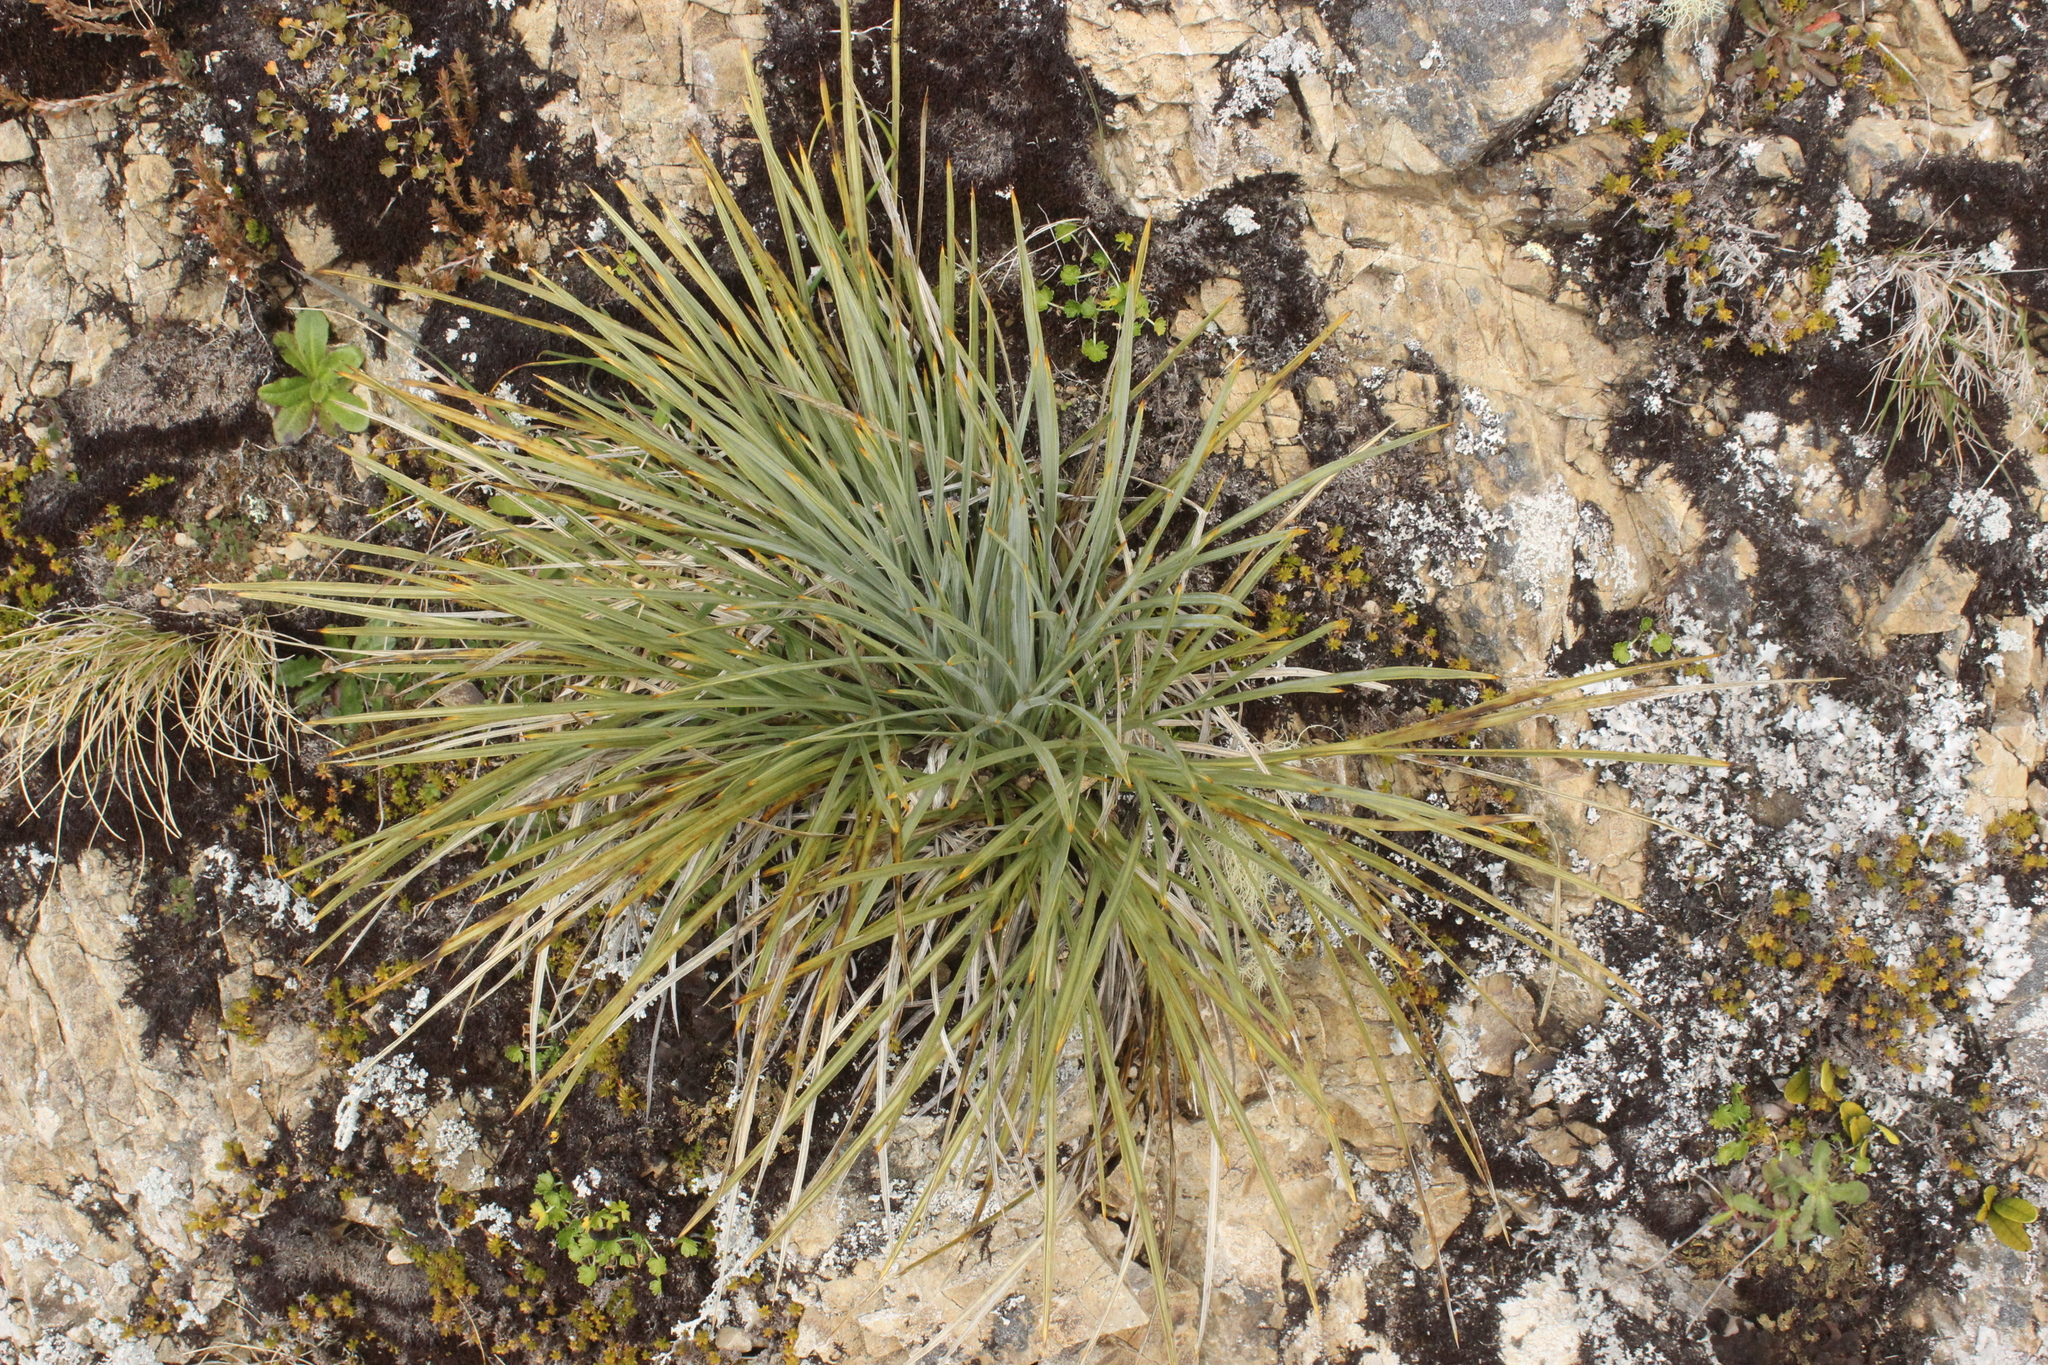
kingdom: Plantae
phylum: Tracheophyta
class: Magnoliopsida
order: Apiales
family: Apiaceae
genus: Aciphylla
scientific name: Aciphylla squarrosa
